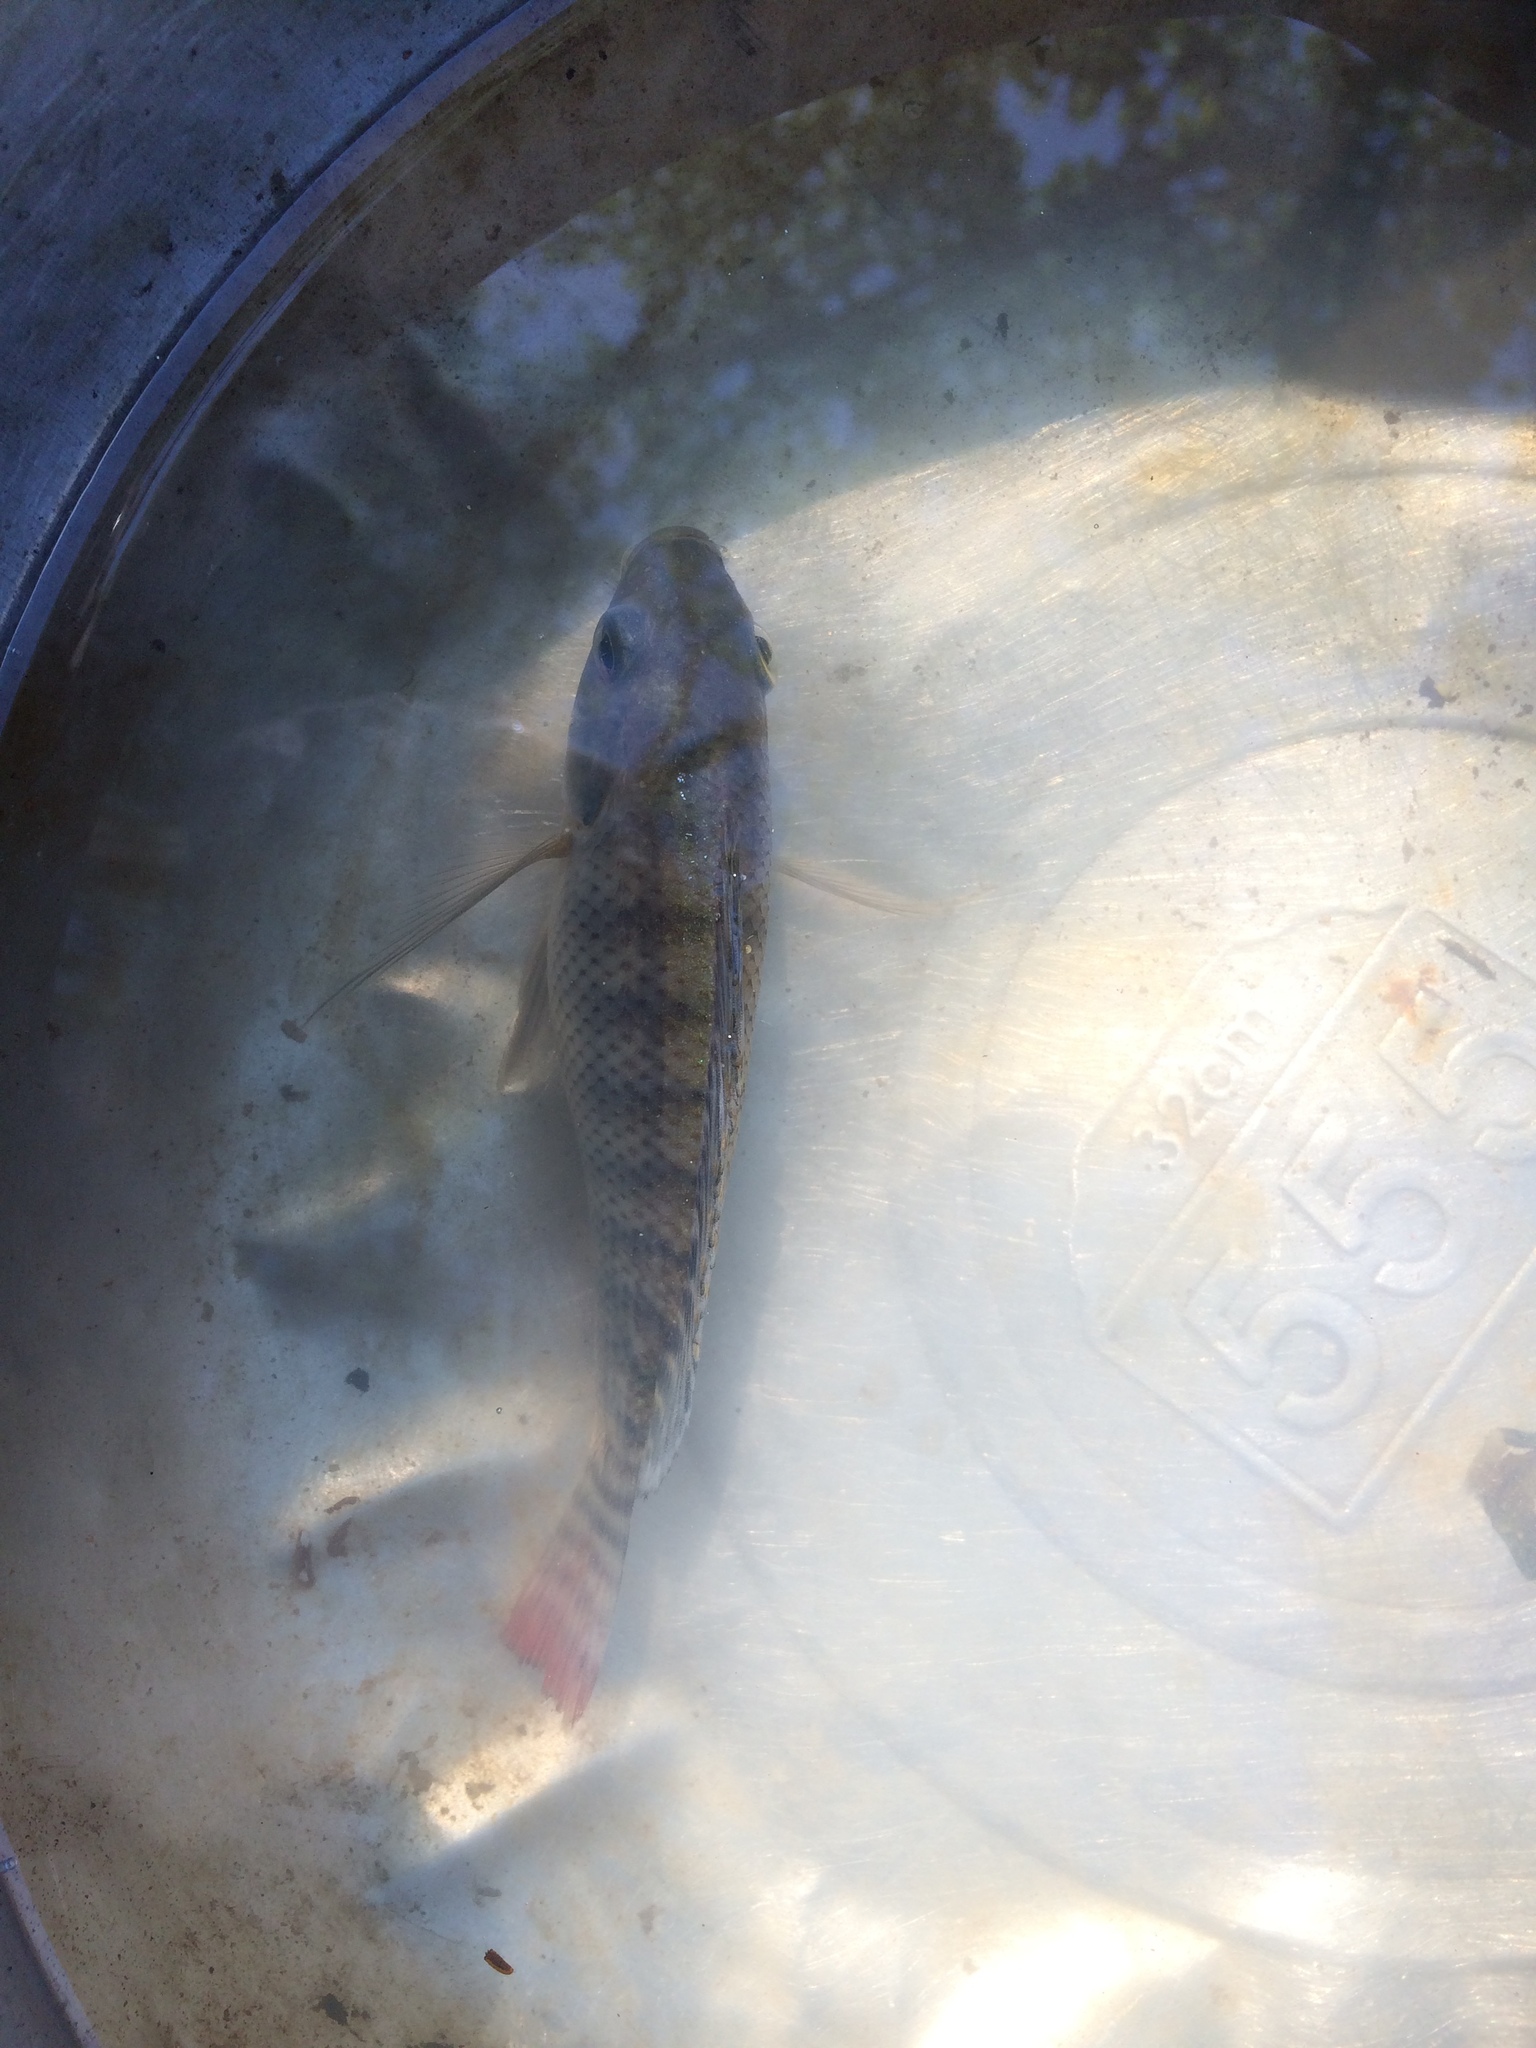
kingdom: Animalia
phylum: Chordata
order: Perciformes
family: Cichlidae
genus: Oreochromis
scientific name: Oreochromis niloticus
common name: Nile tilapia
